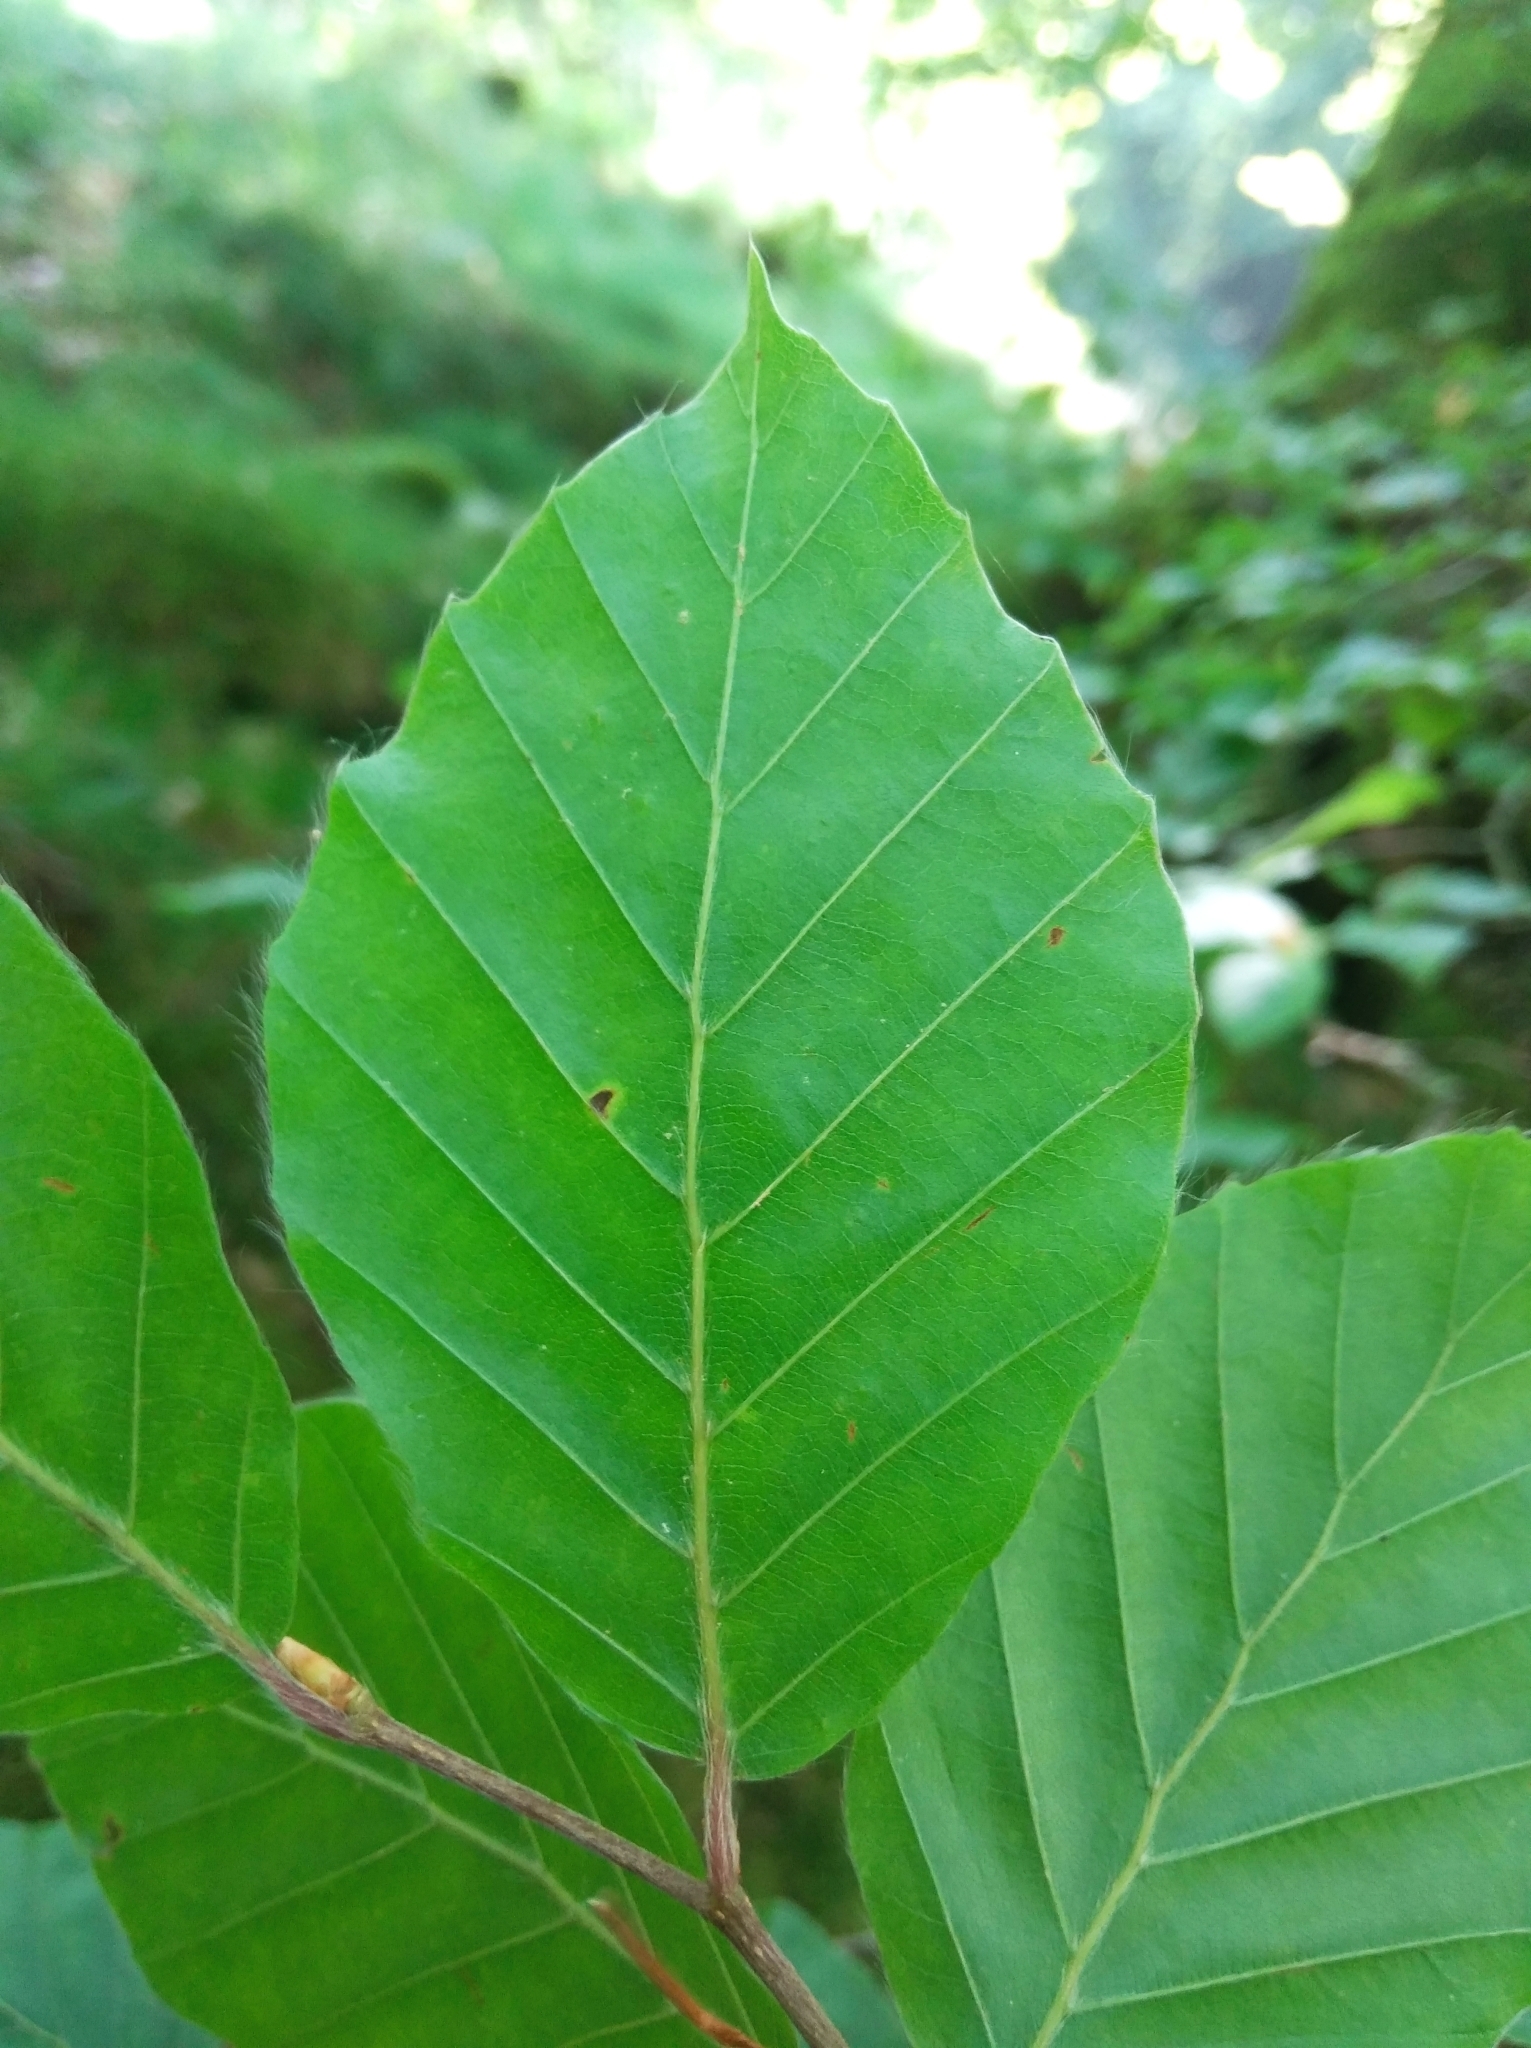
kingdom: Plantae
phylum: Tracheophyta
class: Magnoliopsida
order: Fagales
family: Fagaceae
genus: Fagus
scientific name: Fagus sylvatica
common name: Beech
